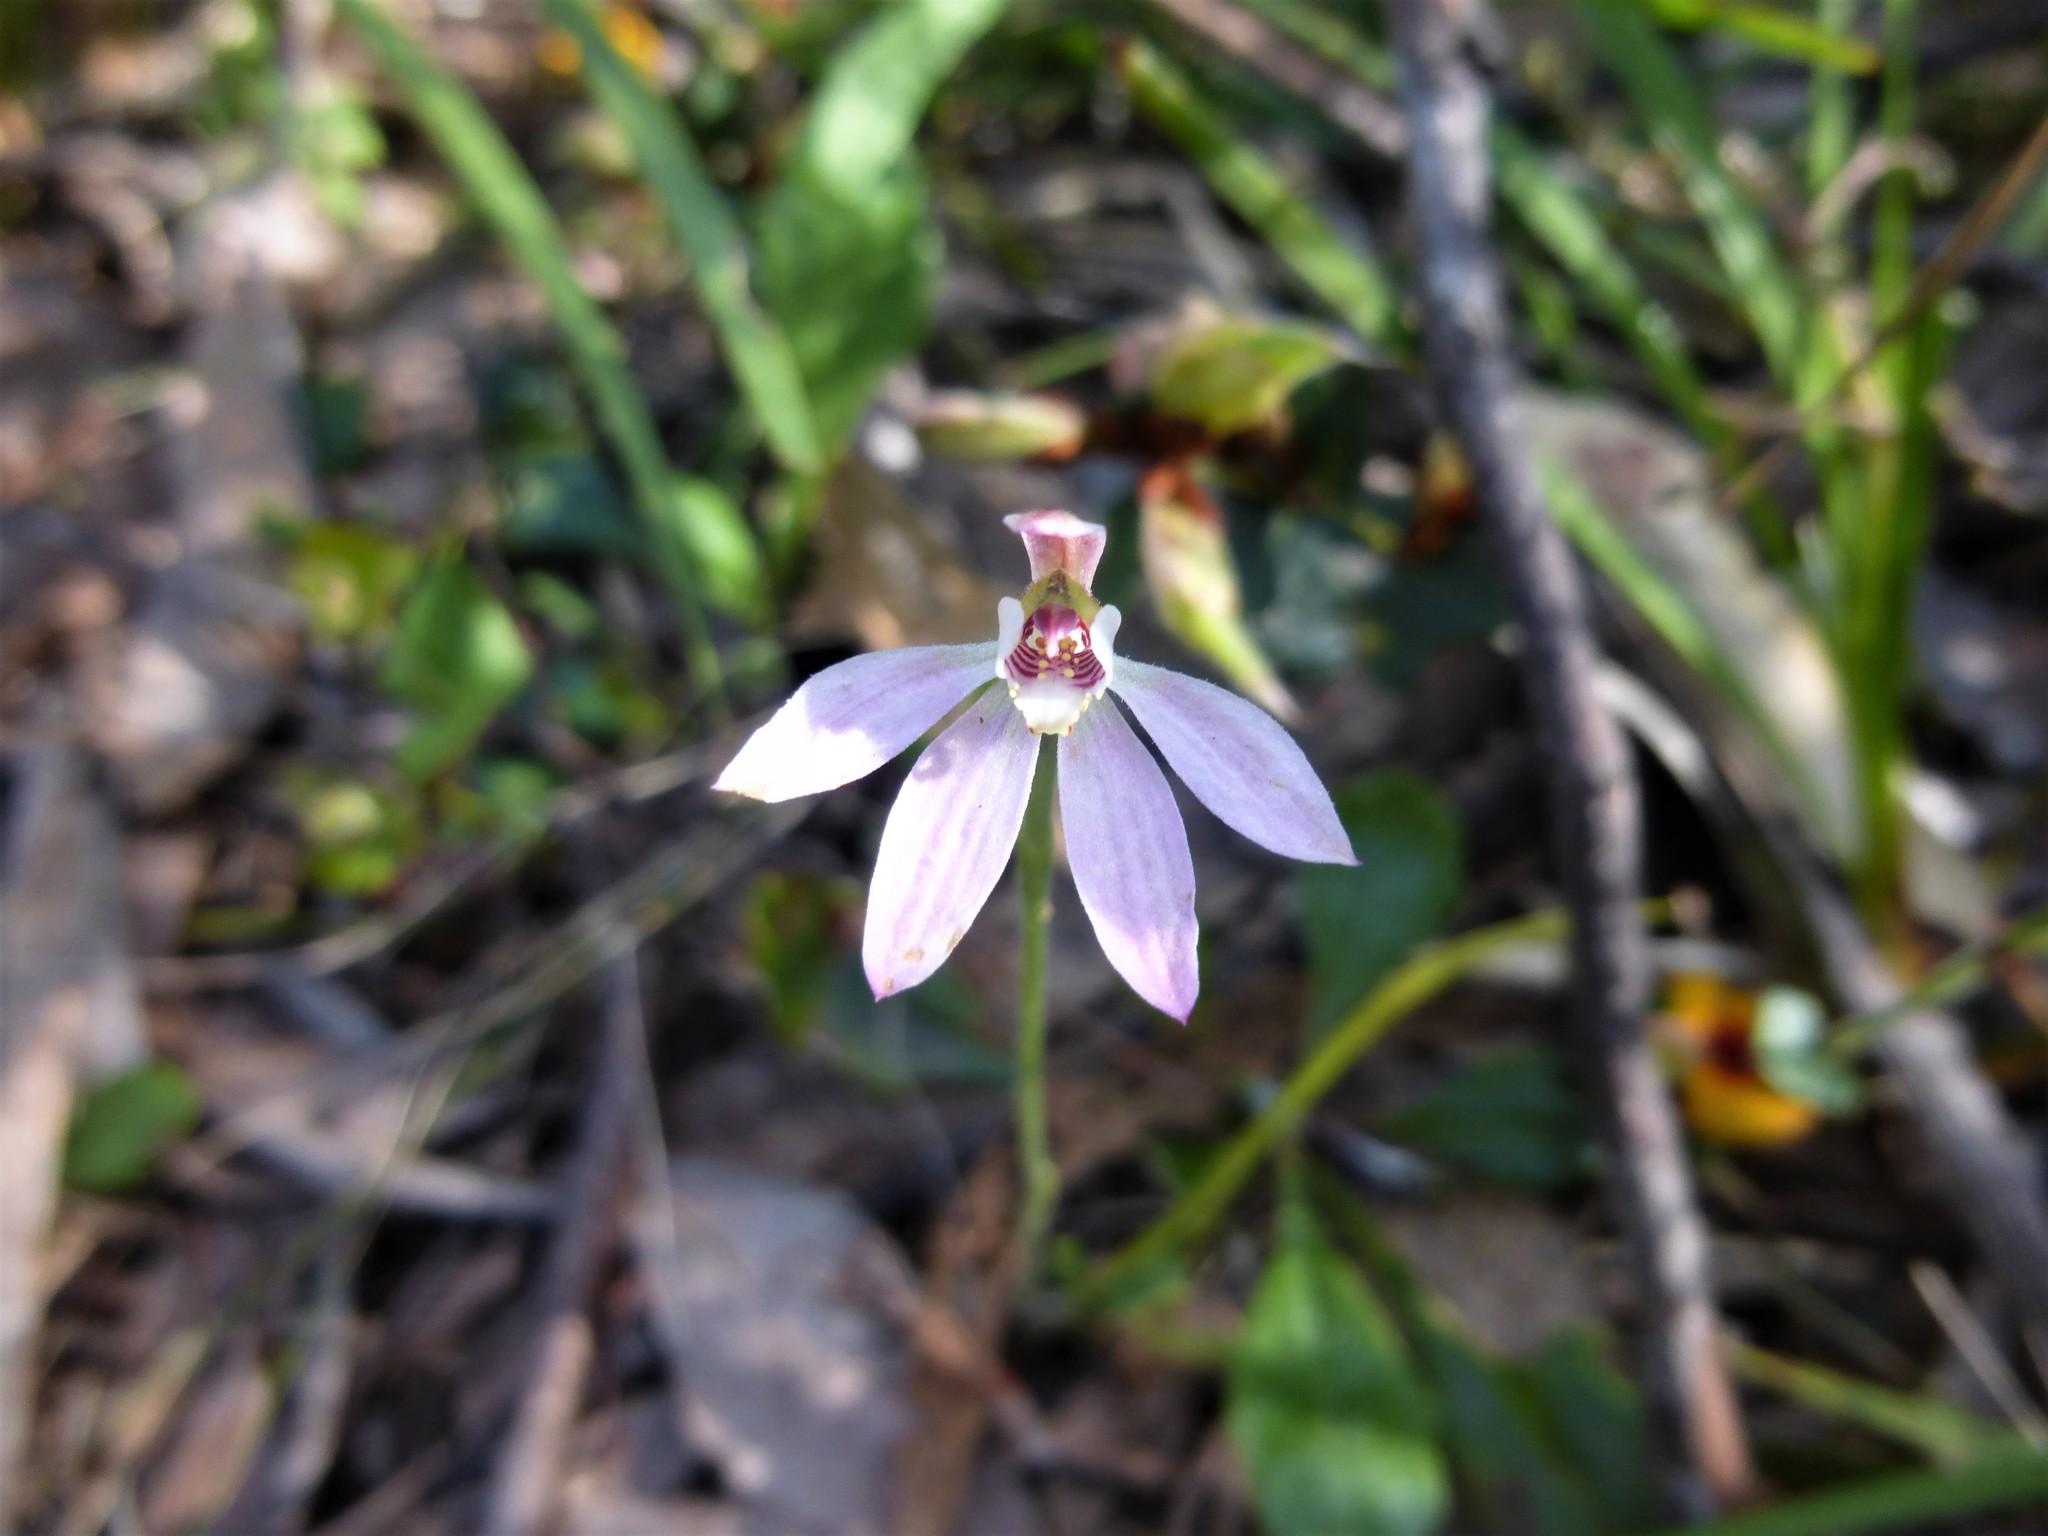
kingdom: Plantae
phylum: Tracheophyta
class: Liliopsida
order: Asparagales
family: Orchidaceae
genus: Caladenia
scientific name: Caladenia carnea
